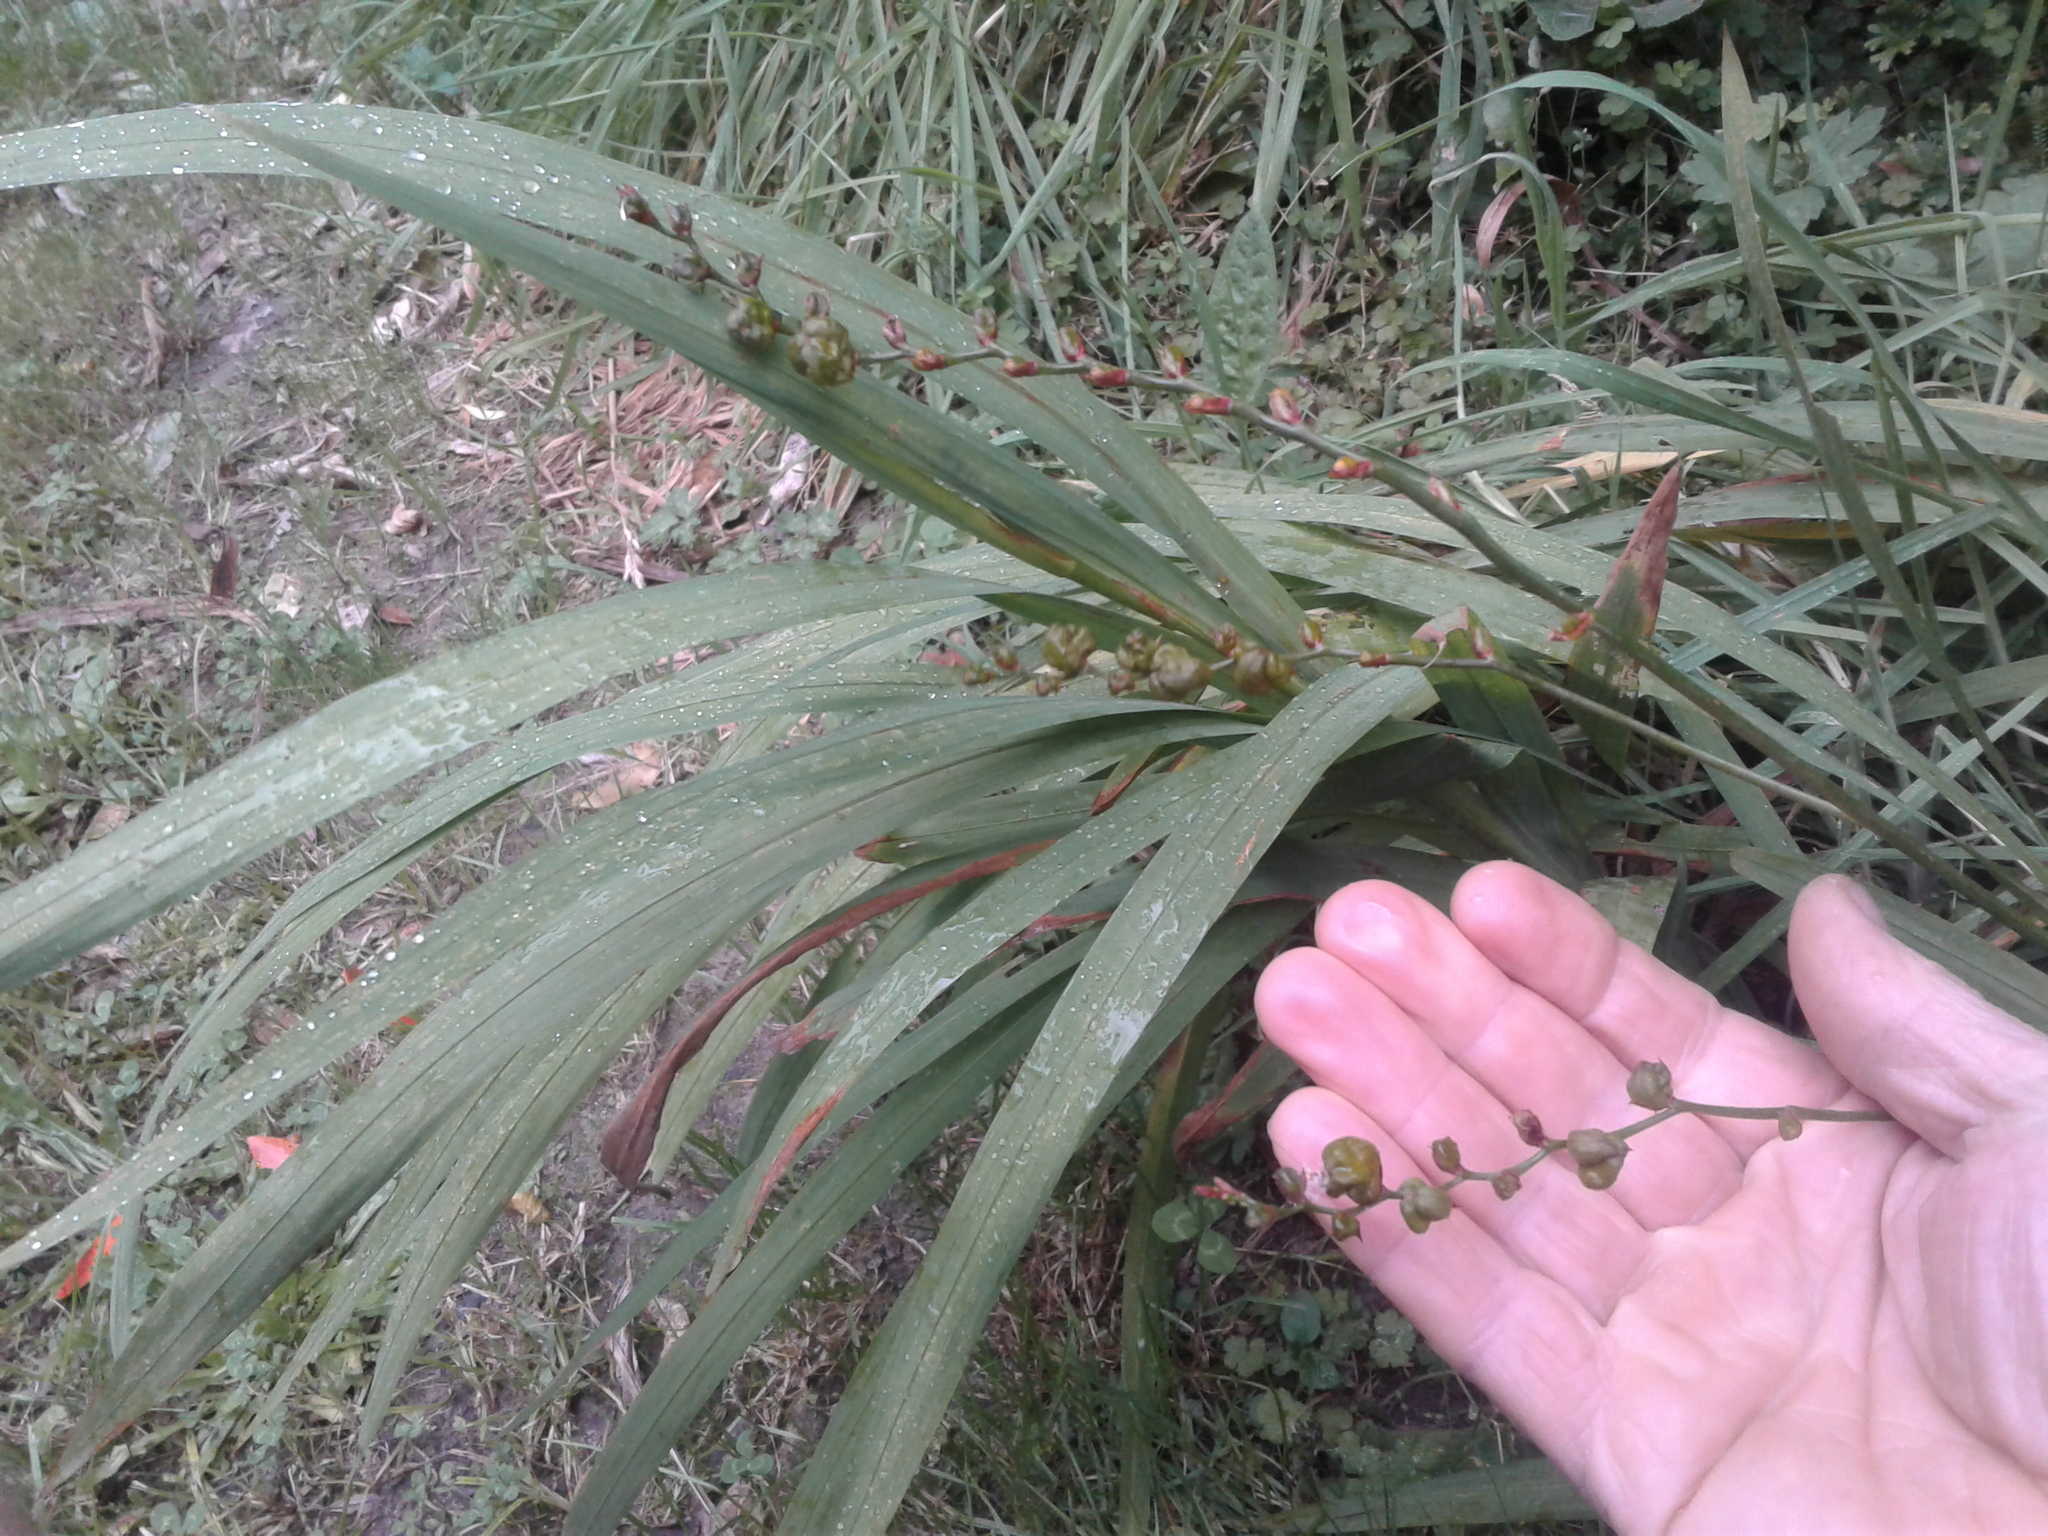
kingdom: Plantae
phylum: Tracheophyta
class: Liliopsida
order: Asparagales
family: Iridaceae
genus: Crocosmia
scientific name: Crocosmia crocosmiiflora
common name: Montbretia
